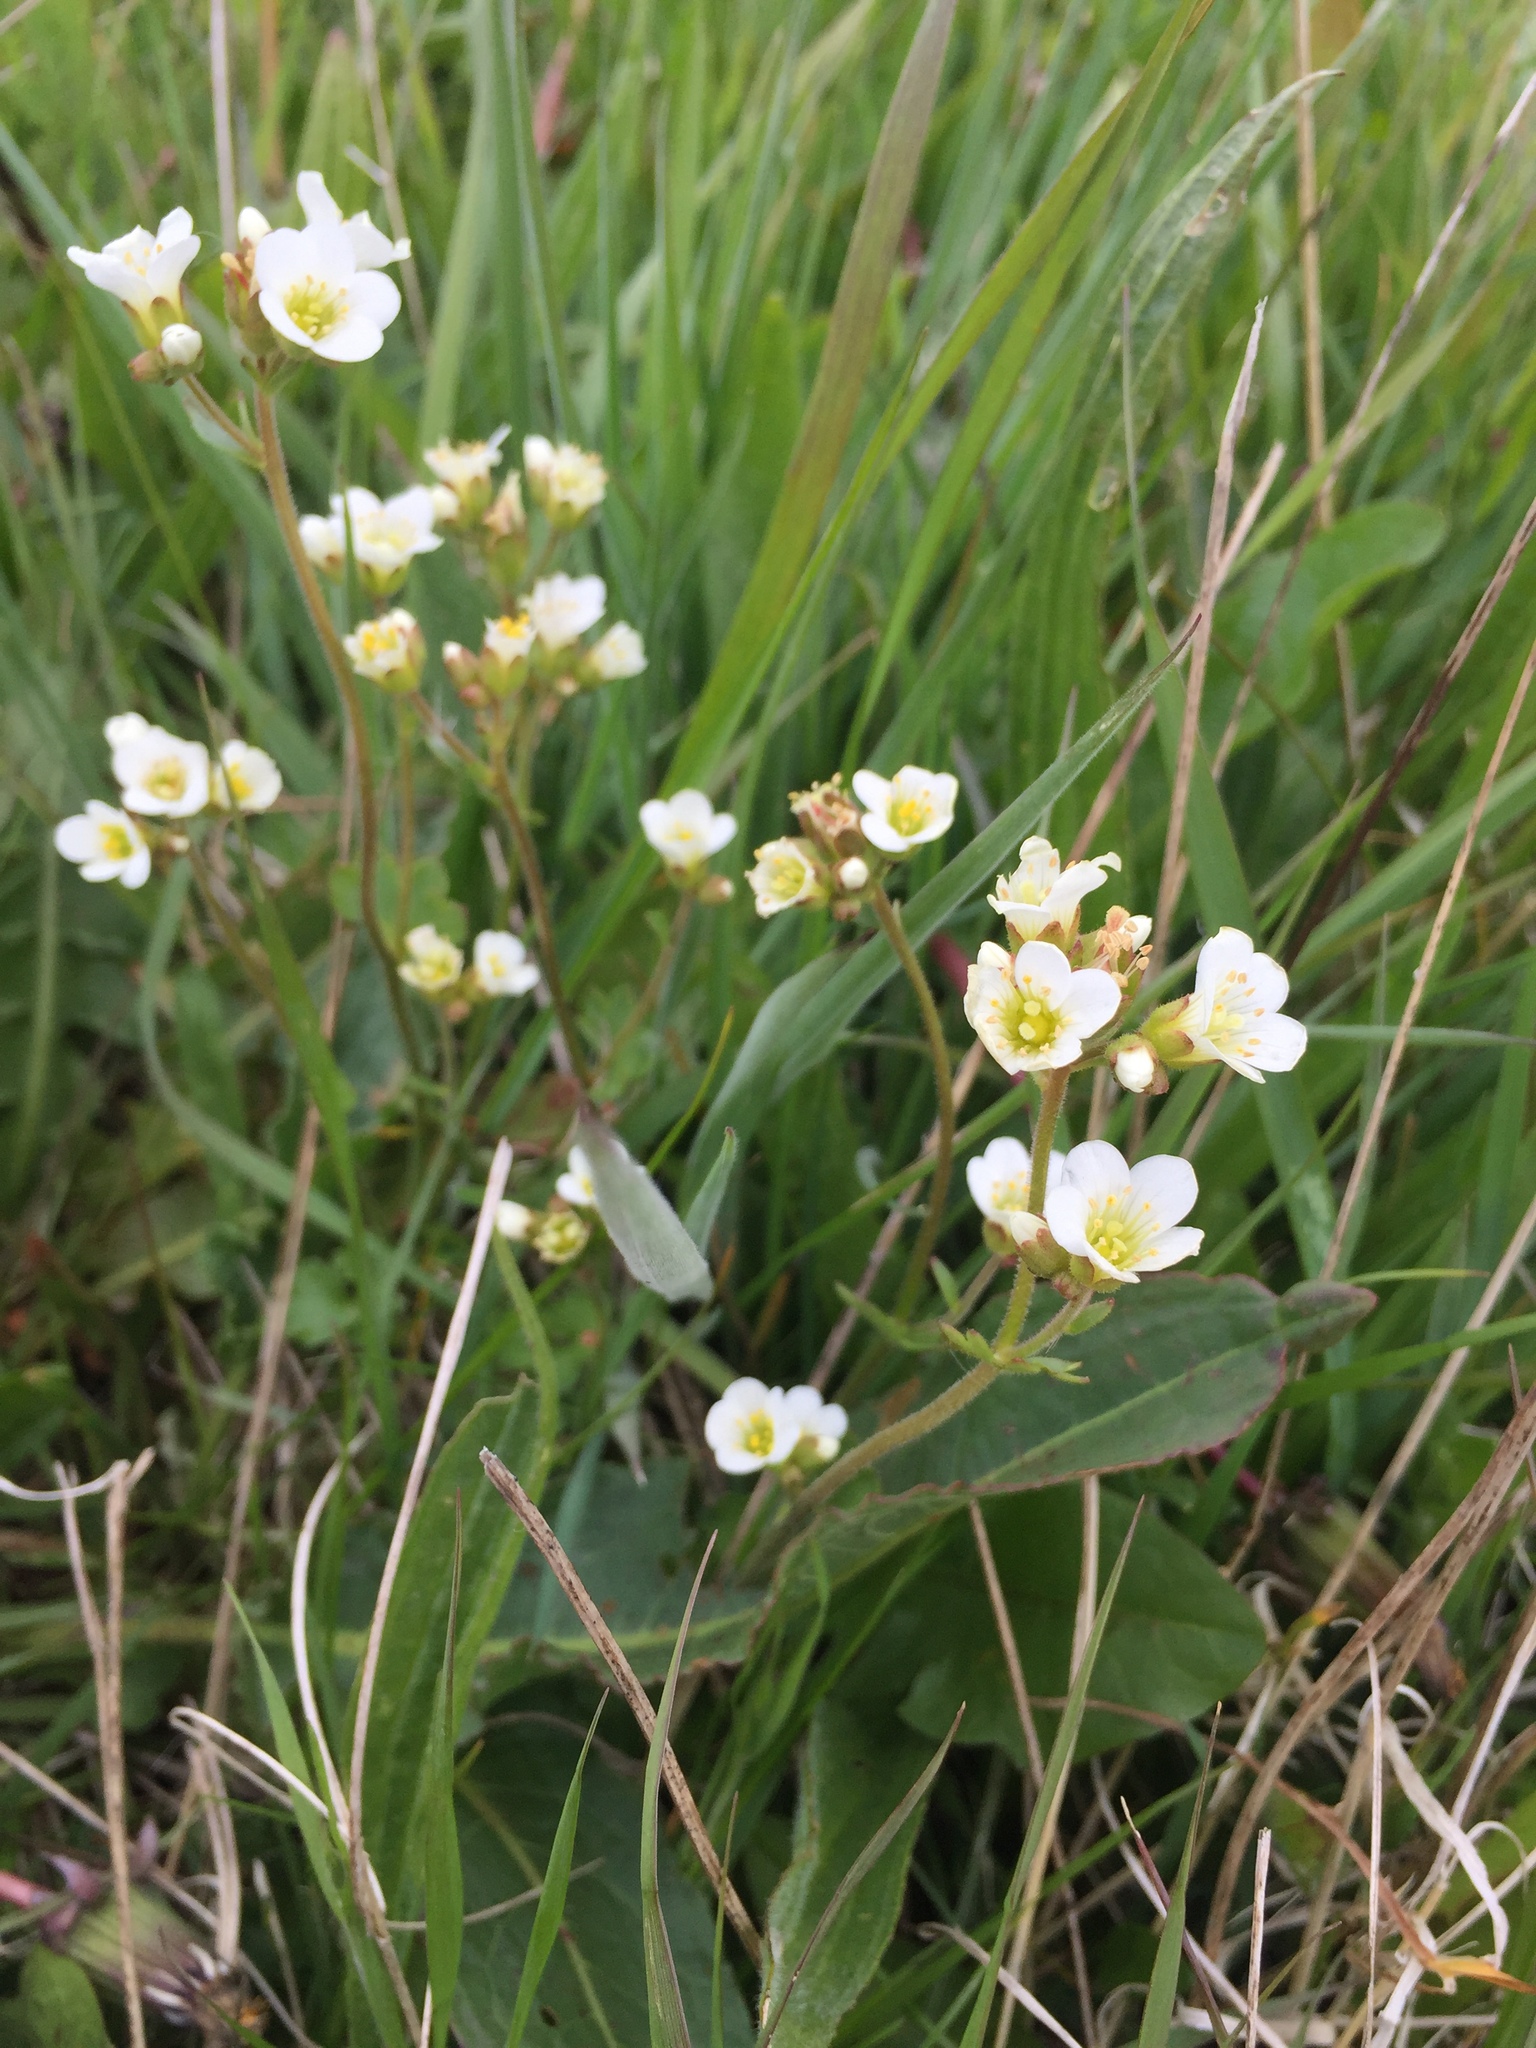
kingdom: Plantae
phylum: Tracheophyta
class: Magnoliopsida
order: Saxifragales
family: Saxifragaceae
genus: Saxifraga
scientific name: Saxifraga granulata
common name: Meadow saxifrage
